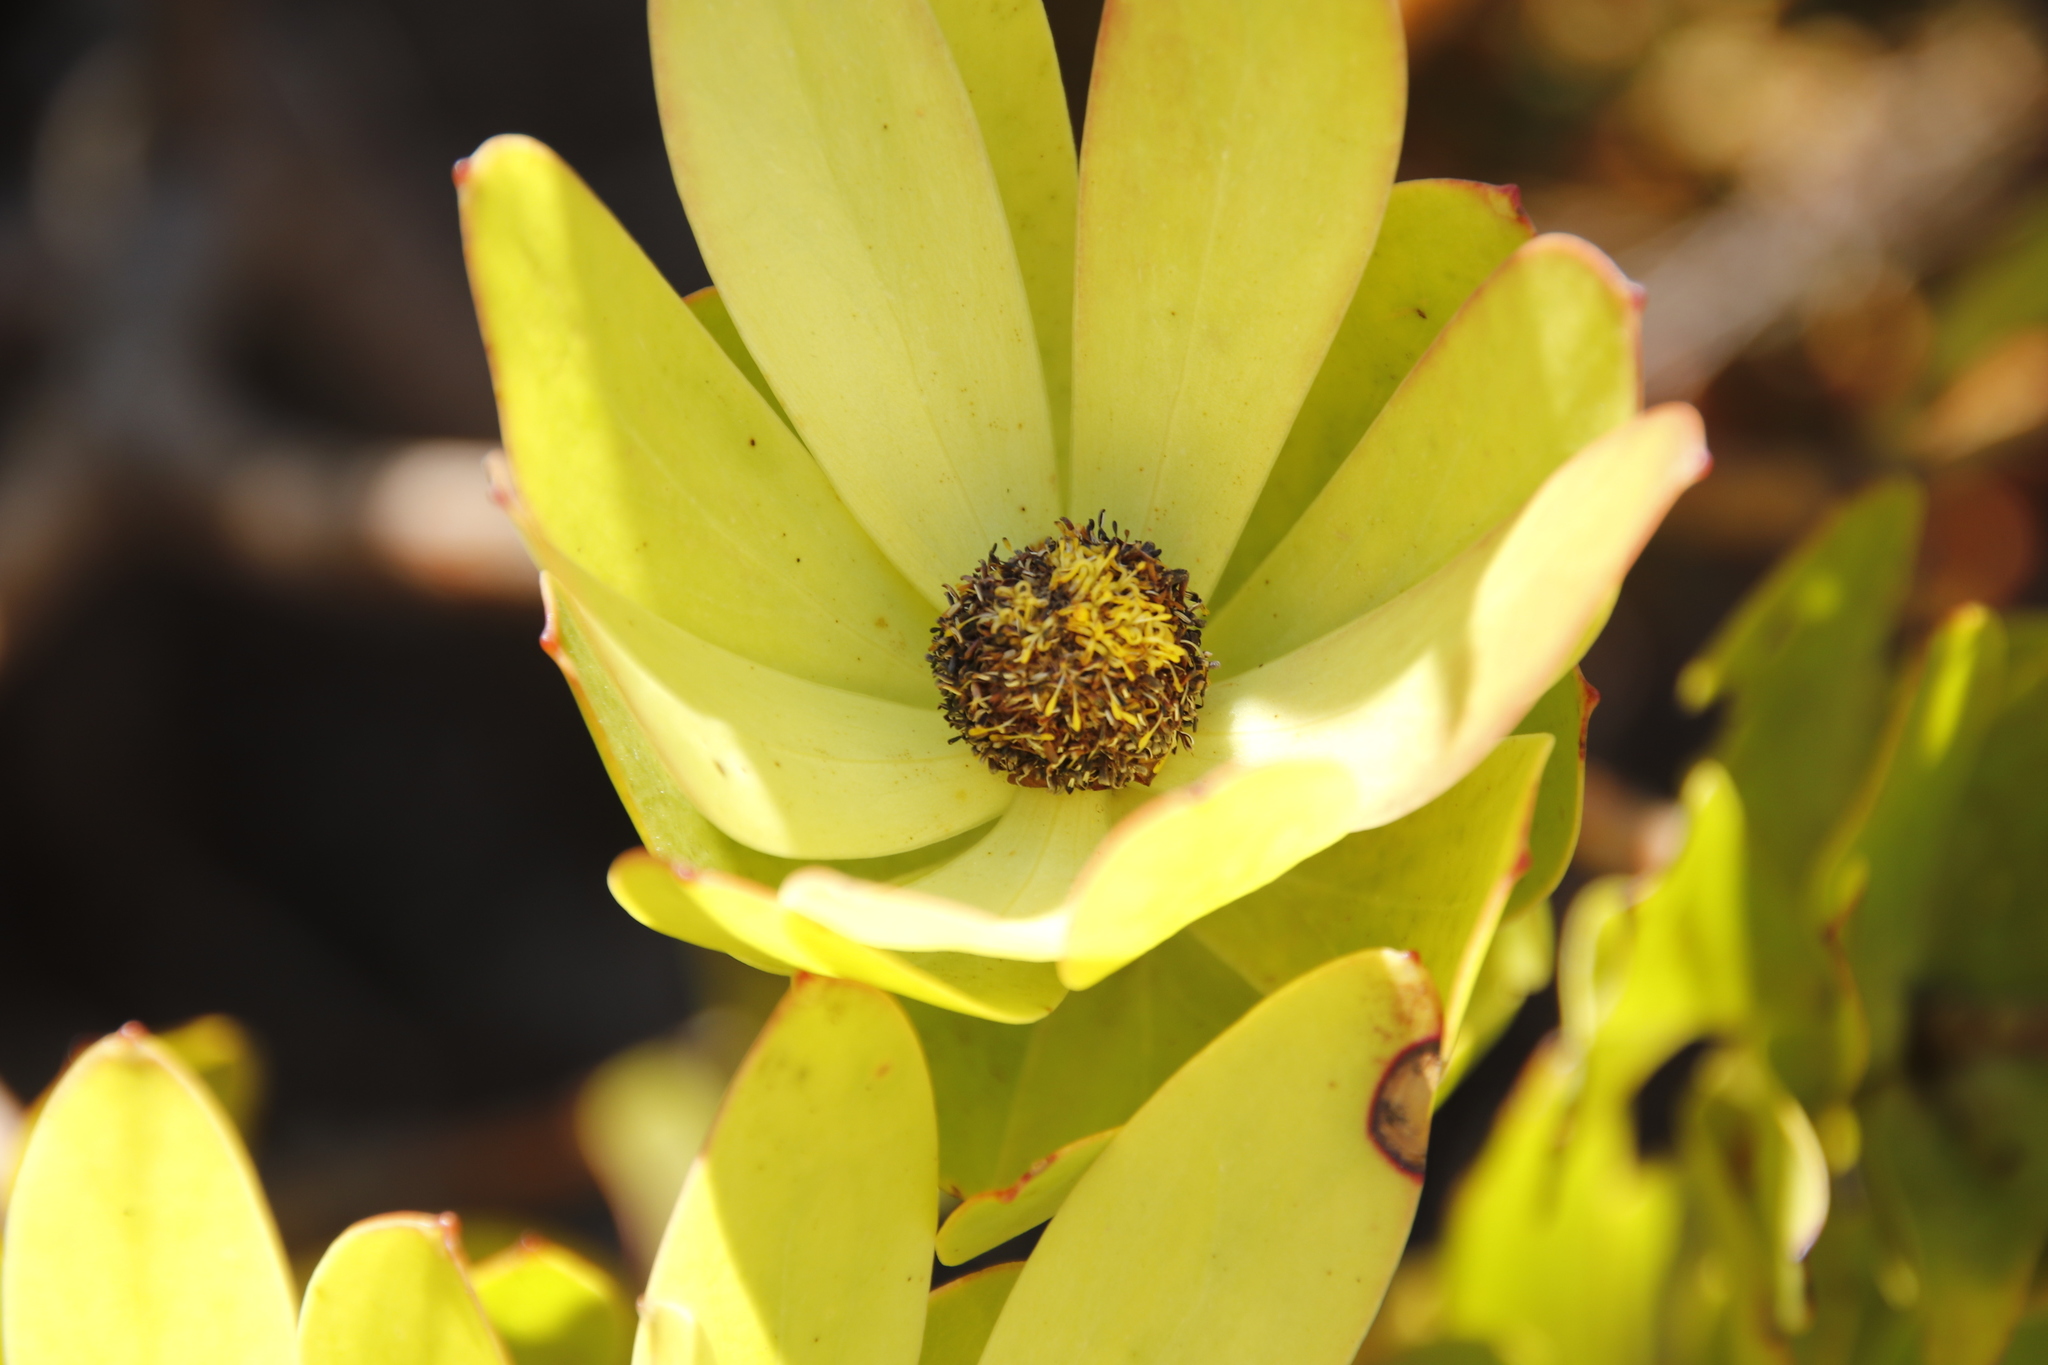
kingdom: Plantae
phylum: Tracheophyta
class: Magnoliopsida
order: Proteales
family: Proteaceae
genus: Leucadendron
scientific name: Leucadendron gandogeri
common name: Broad-leaf conebush
